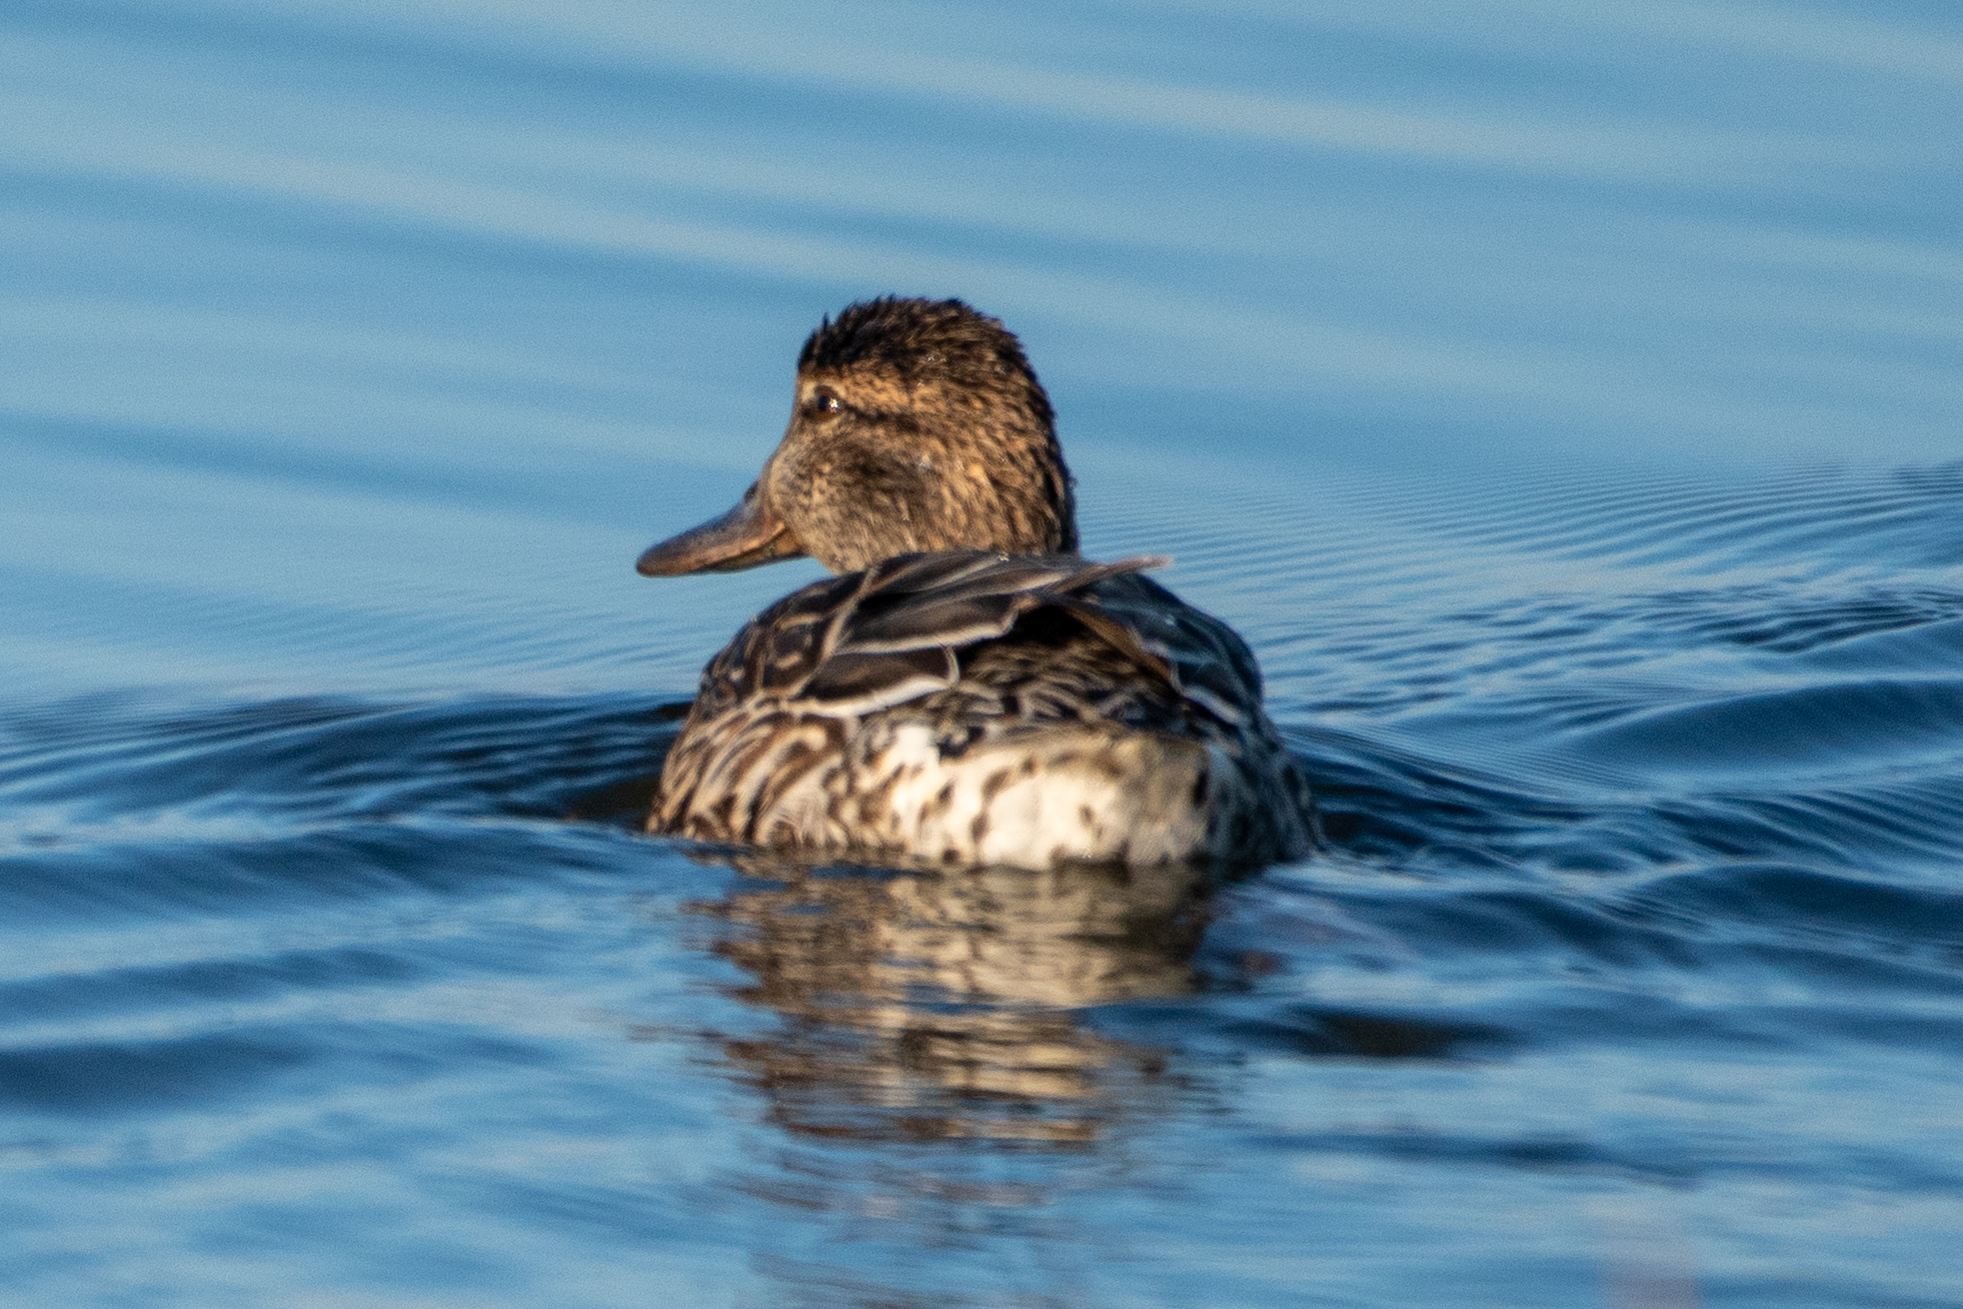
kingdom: Animalia
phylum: Chordata
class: Aves
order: Anseriformes
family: Anatidae
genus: Anas
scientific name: Anas crecca
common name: Eurasian teal
